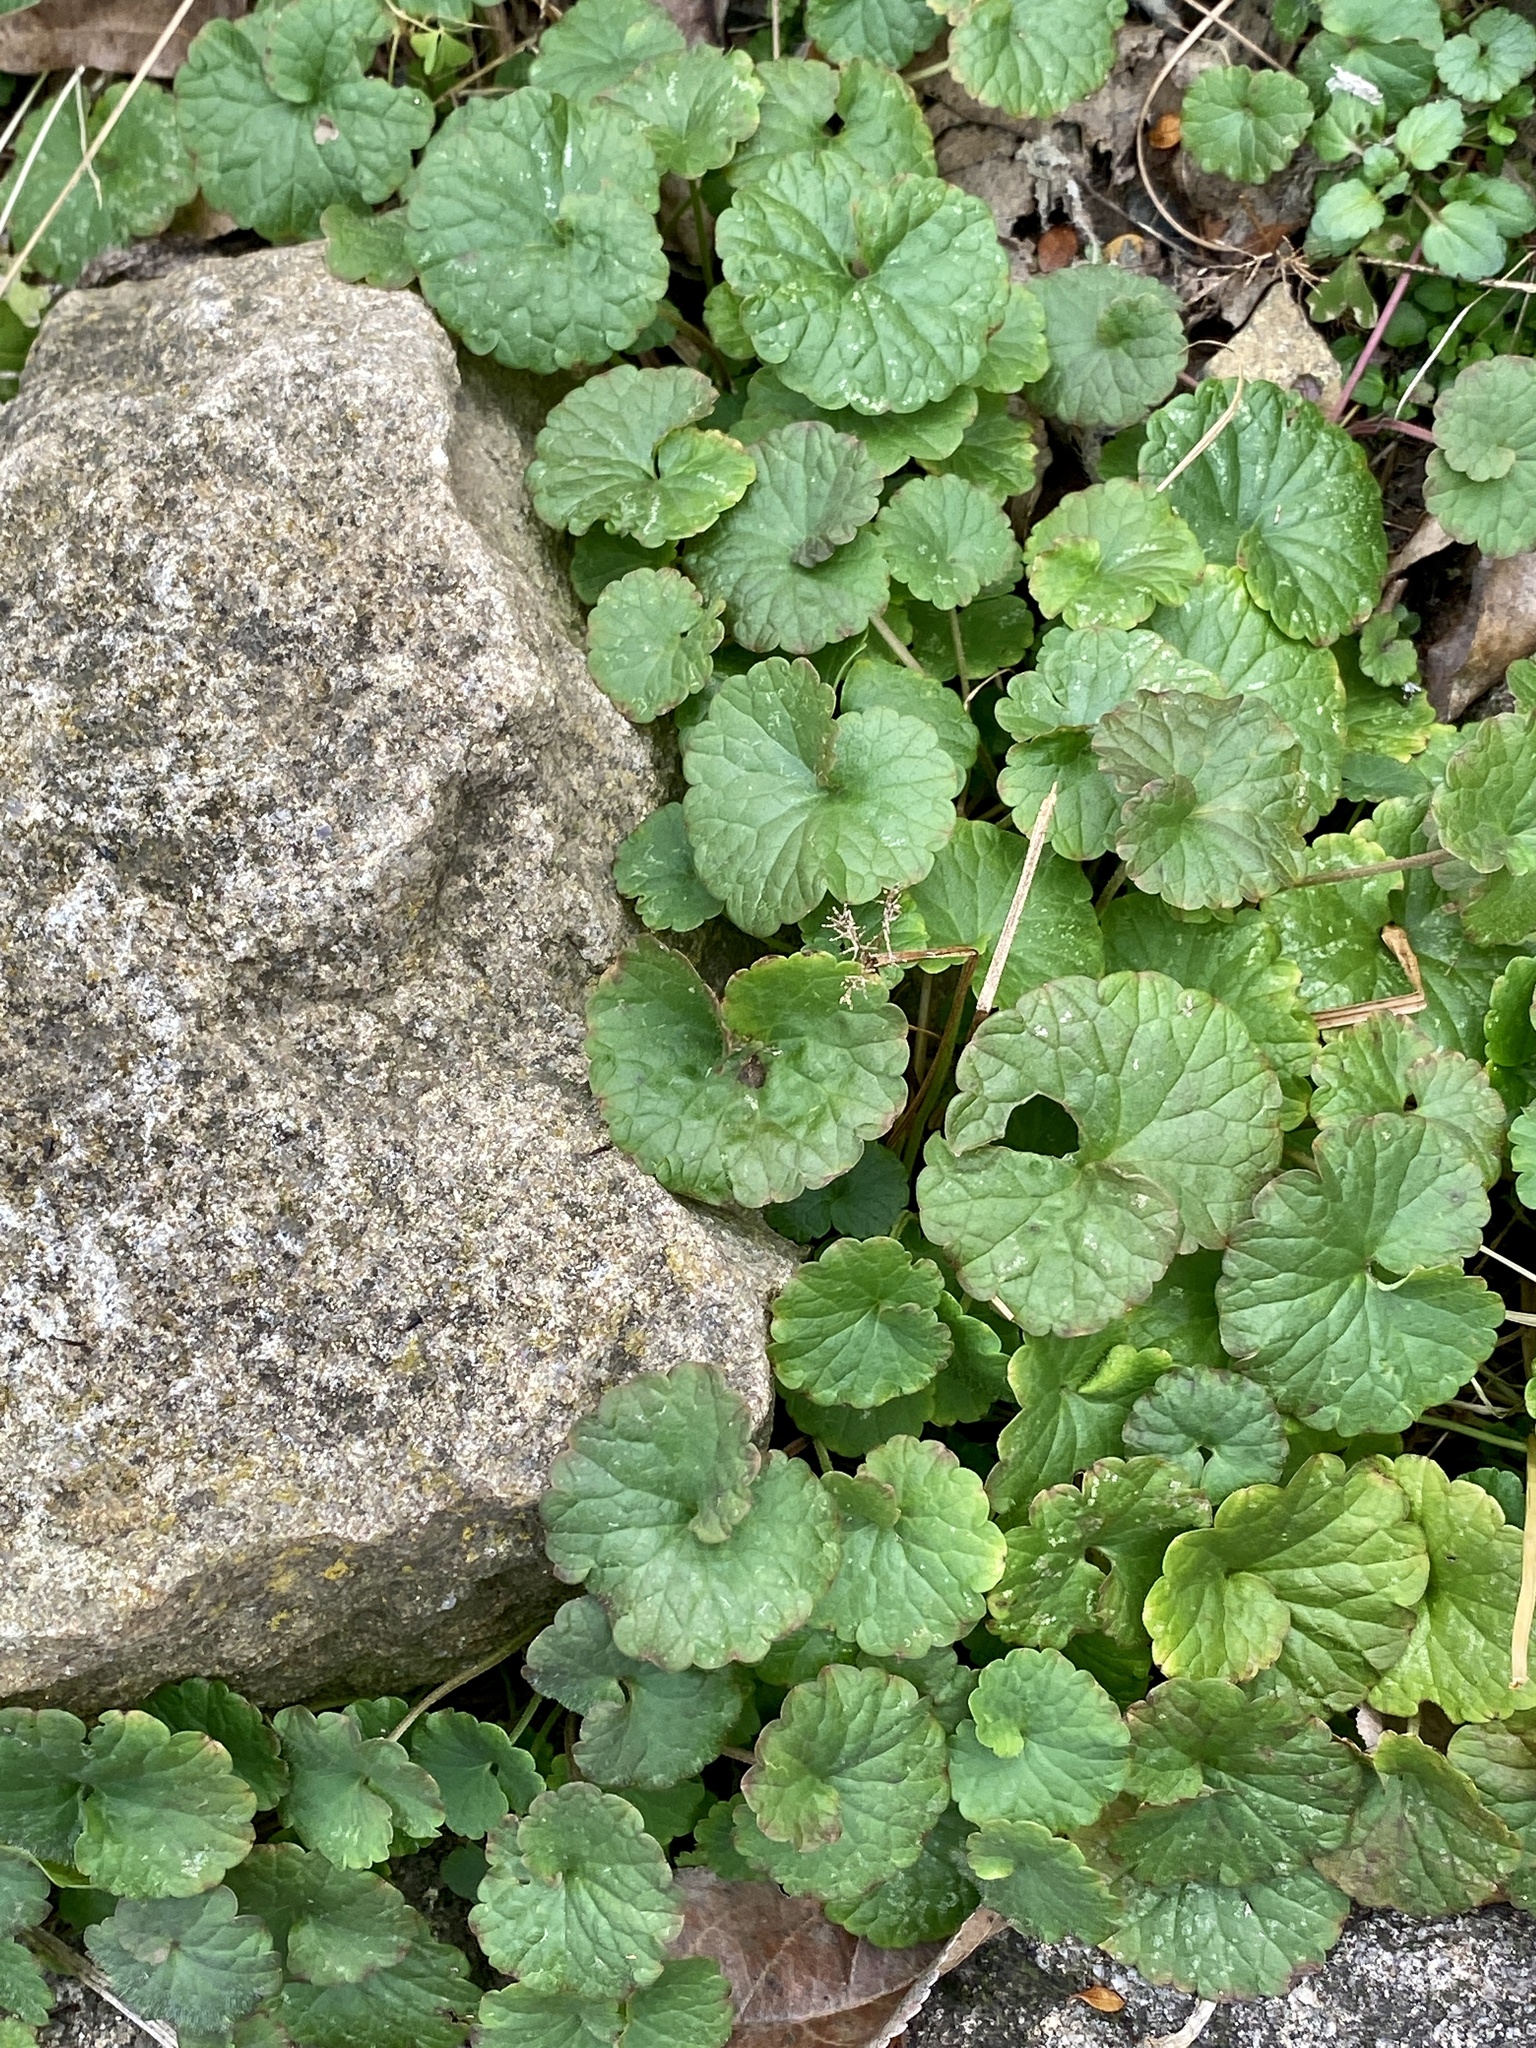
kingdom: Plantae
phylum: Tracheophyta
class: Magnoliopsida
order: Lamiales
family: Lamiaceae
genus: Glechoma
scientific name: Glechoma hederacea
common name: Ground ivy
